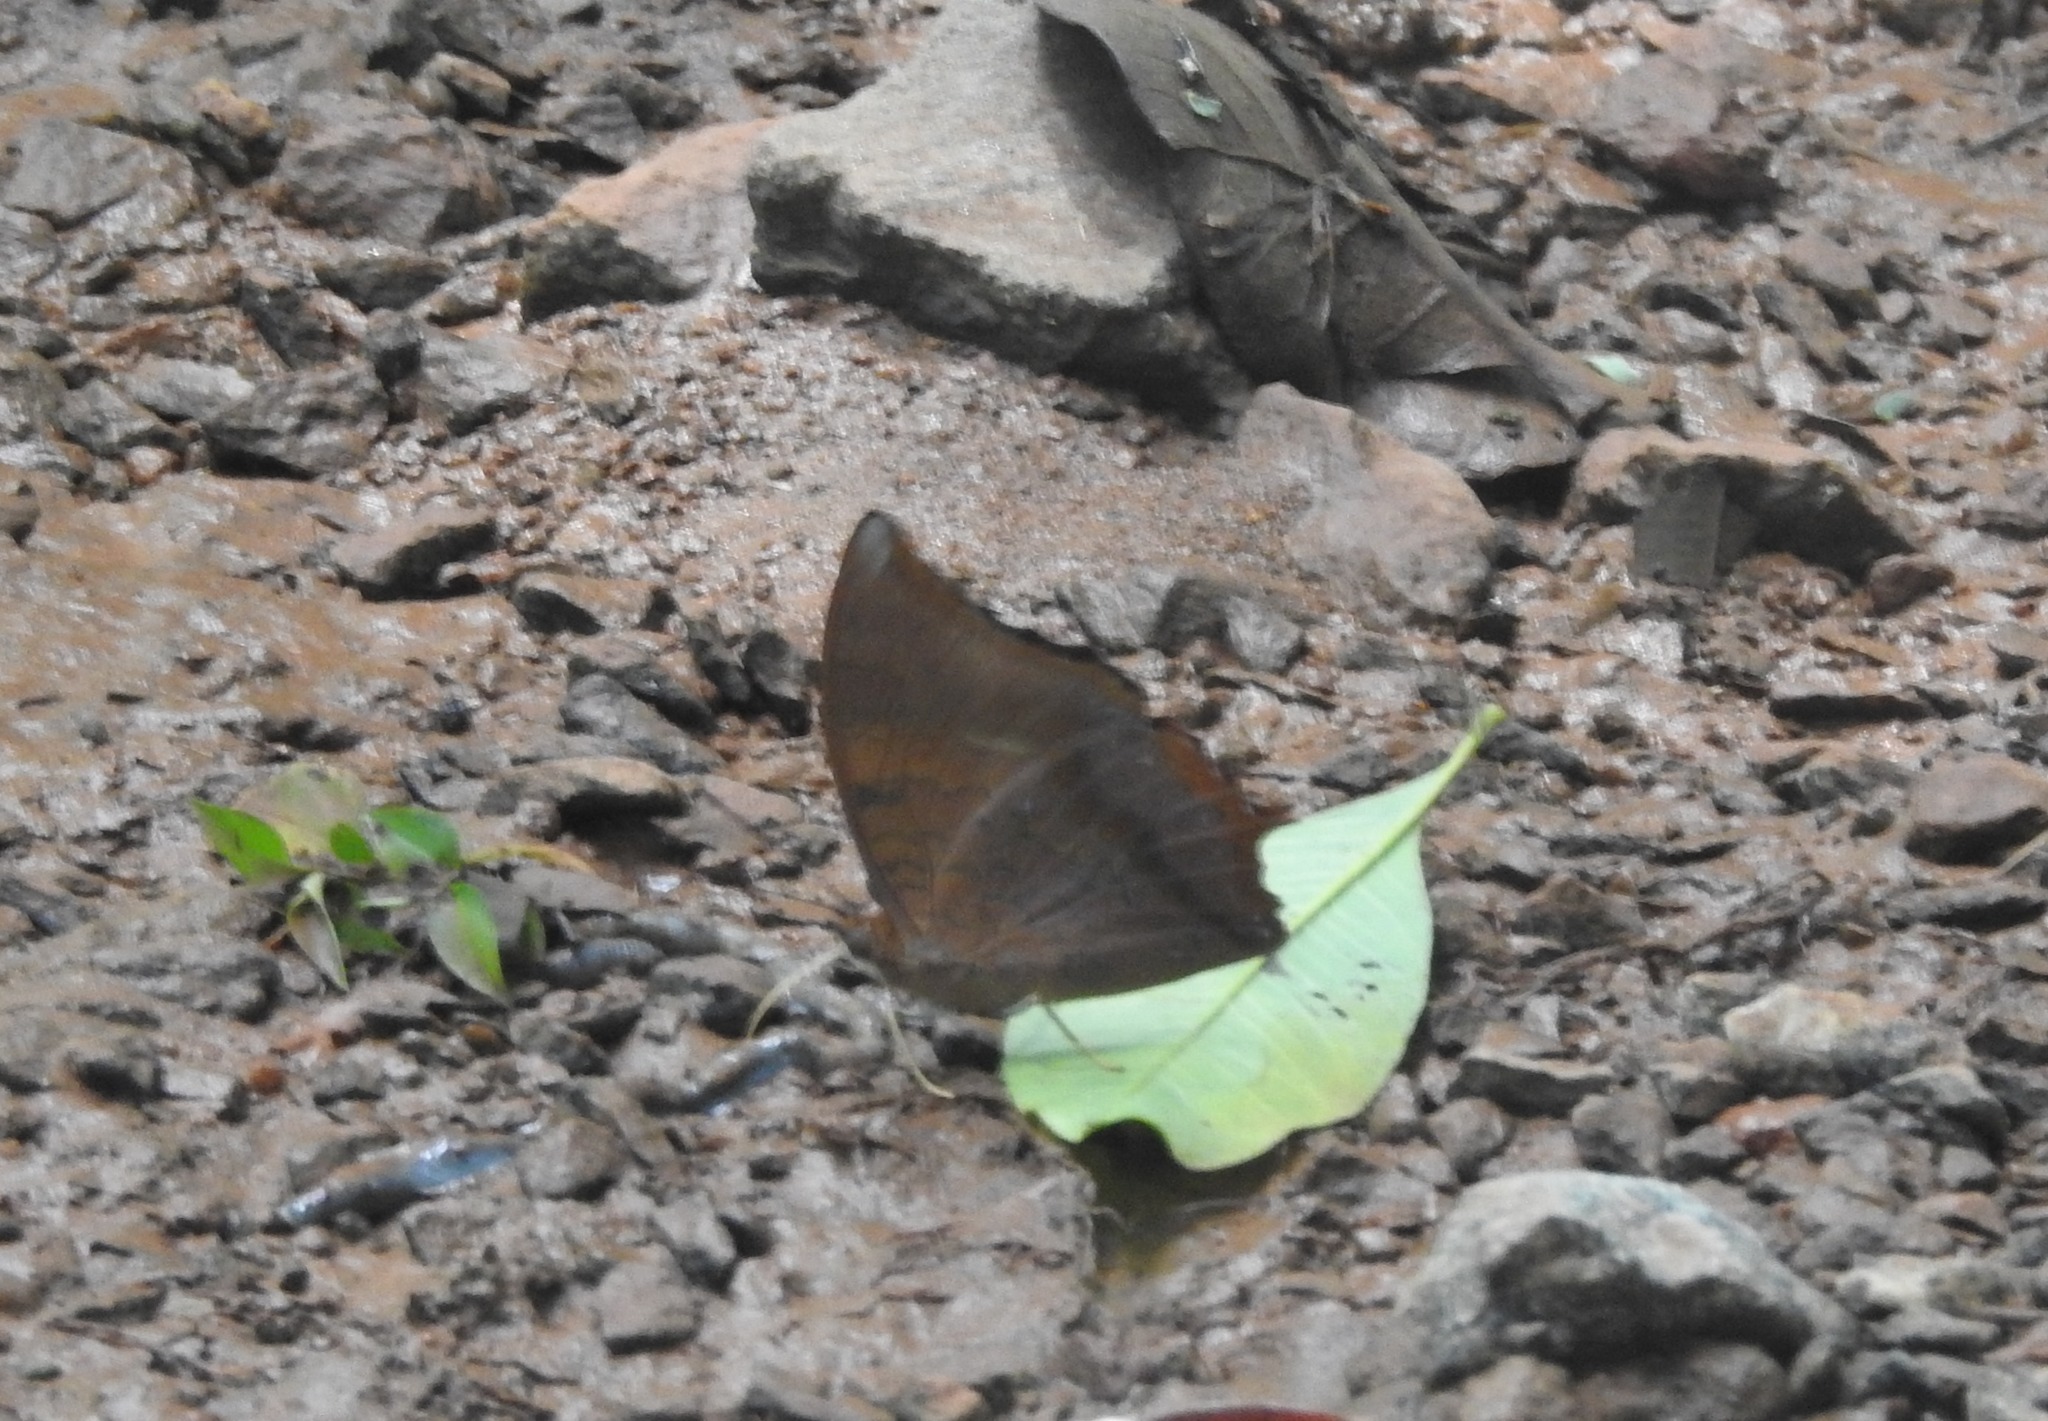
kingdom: Animalia
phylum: Arthropoda
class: Insecta
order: Lepidoptera
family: Nymphalidae
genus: Charaxes
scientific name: Charaxes bernardus
